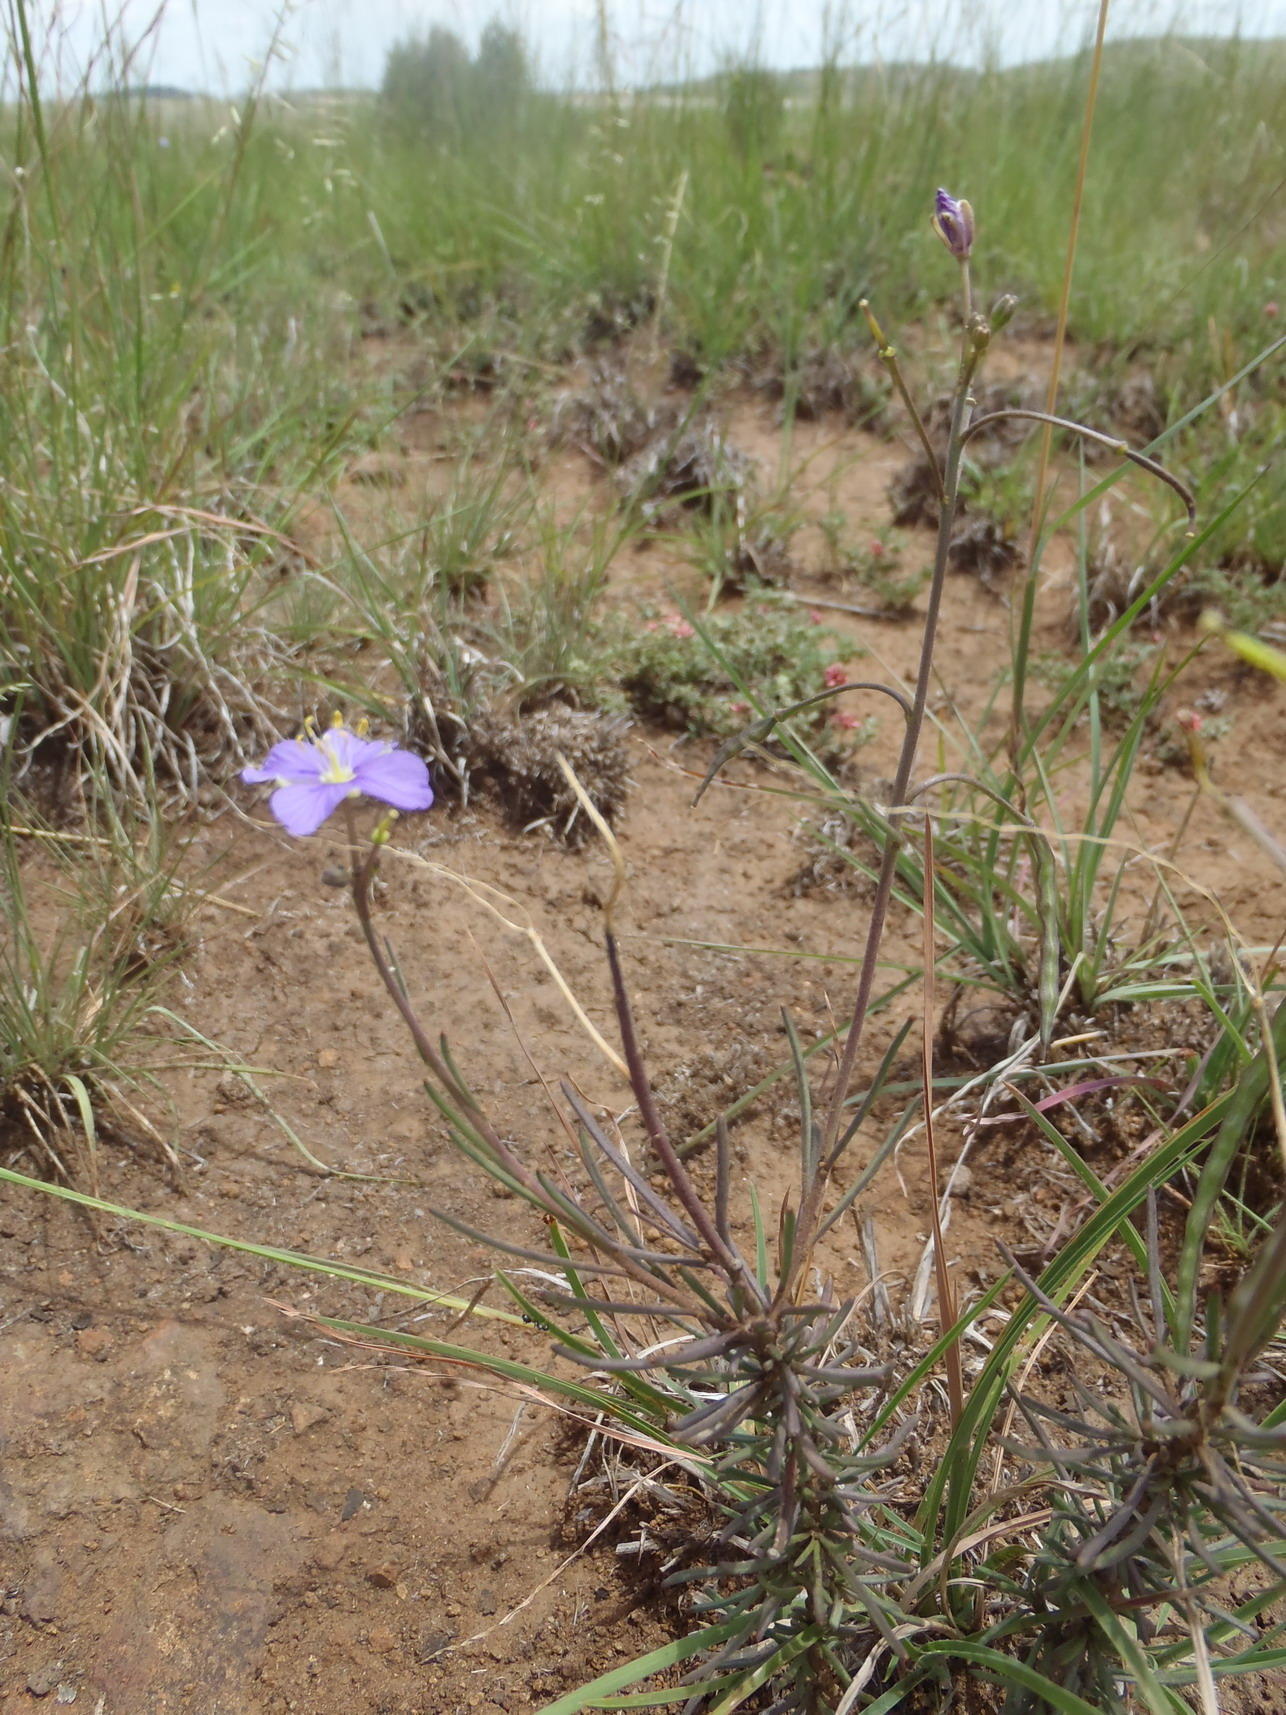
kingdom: Plantae
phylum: Tracheophyta
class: Magnoliopsida
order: Brassicales
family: Brassicaceae
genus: Heliophila
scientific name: Heliophila suavissima
